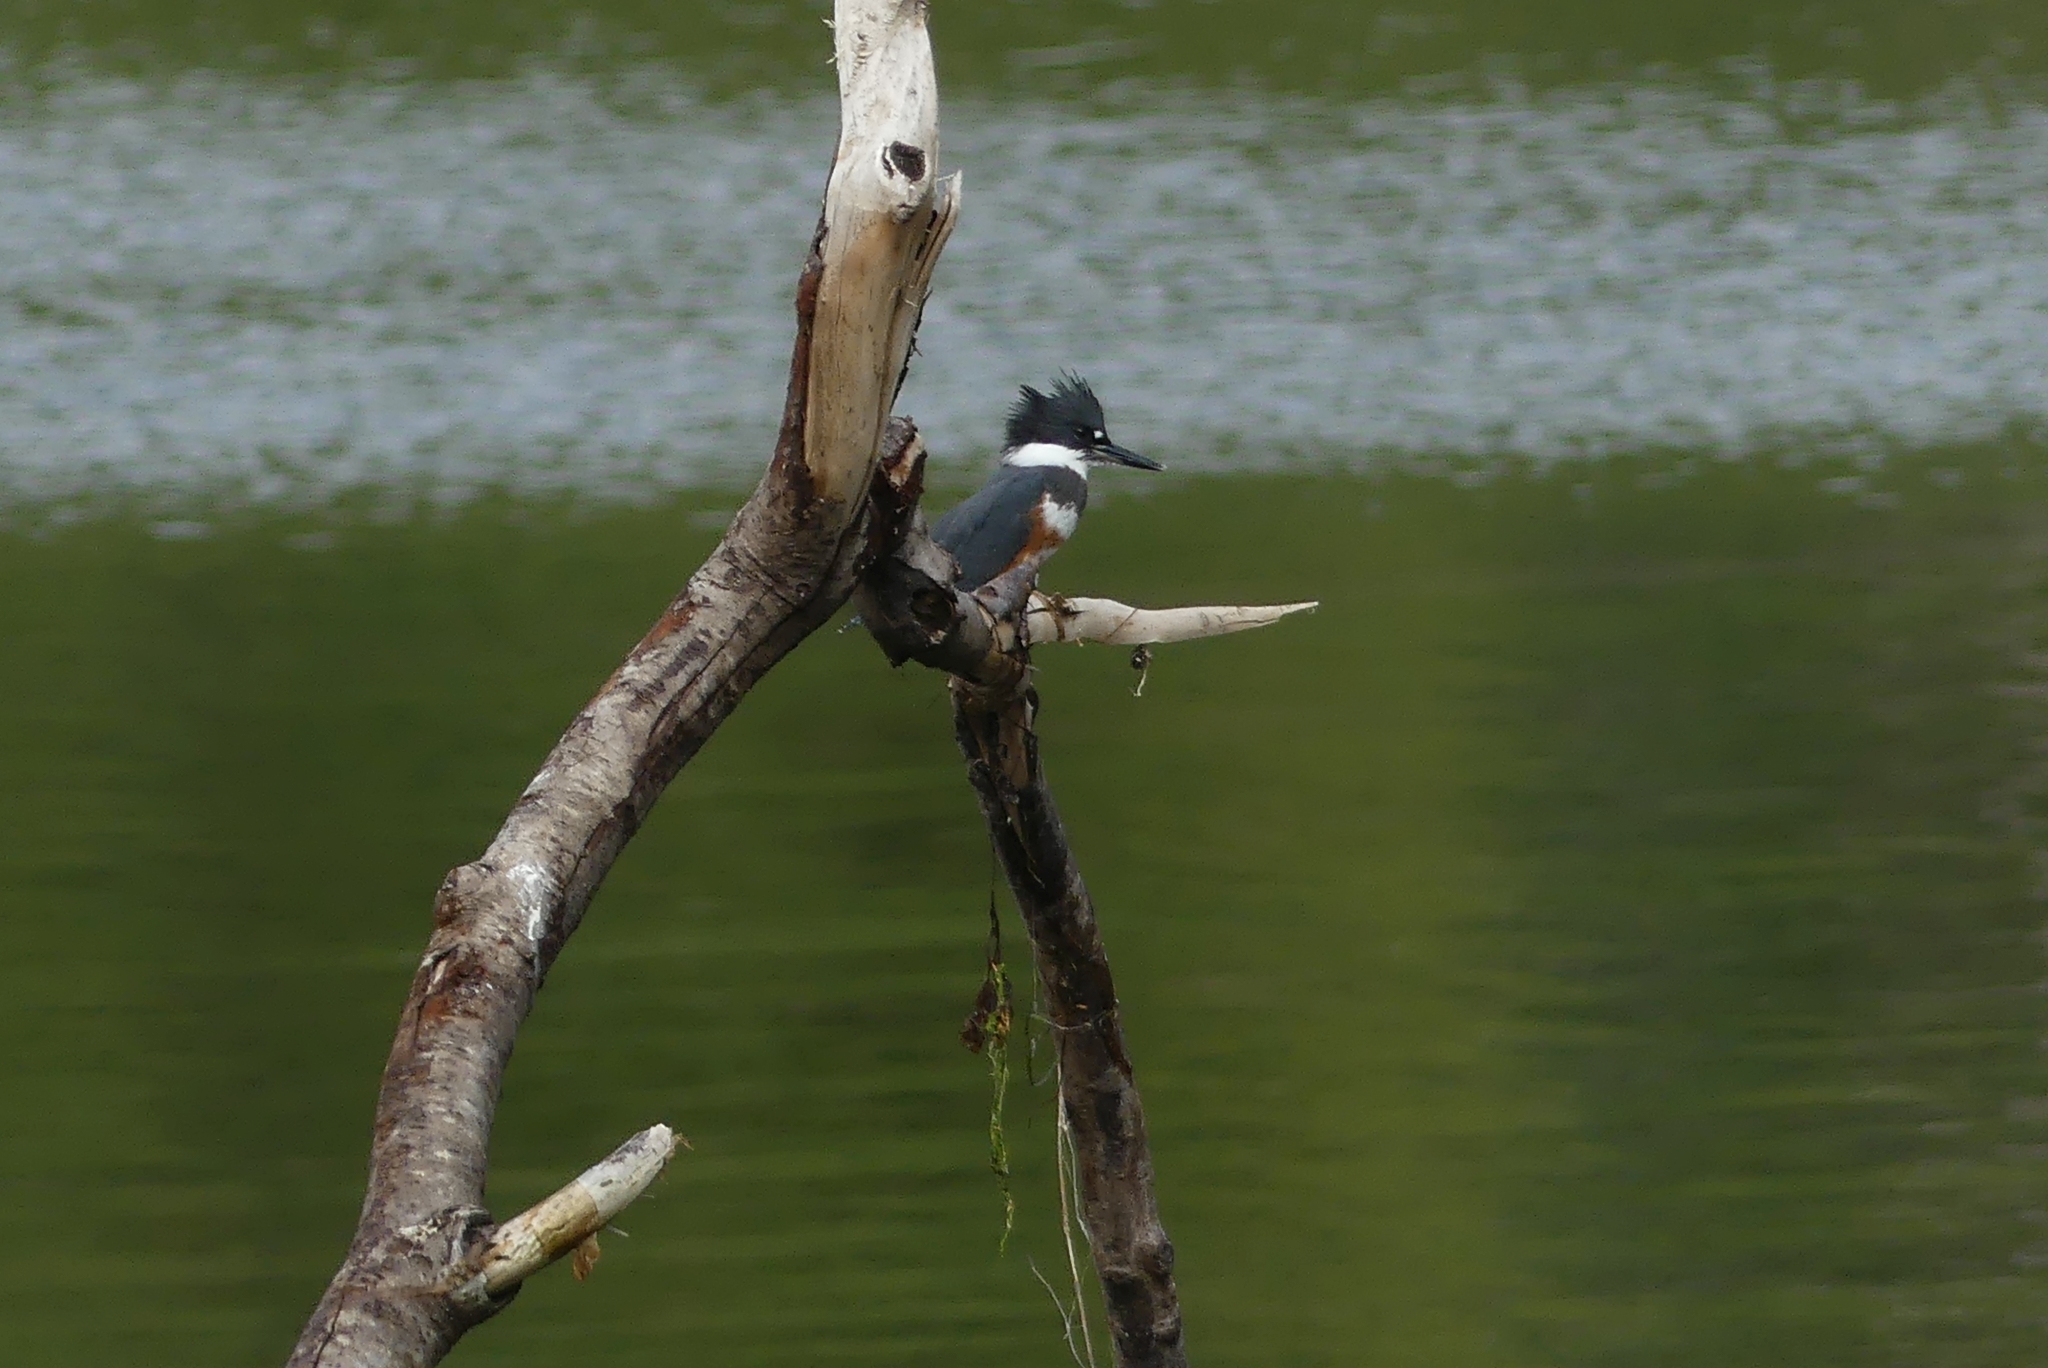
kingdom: Animalia
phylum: Chordata
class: Aves
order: Coraciiformes
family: Alcedinidae
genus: Megaceryle
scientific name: Megaceryle alcyon
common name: Belted kingfisher
